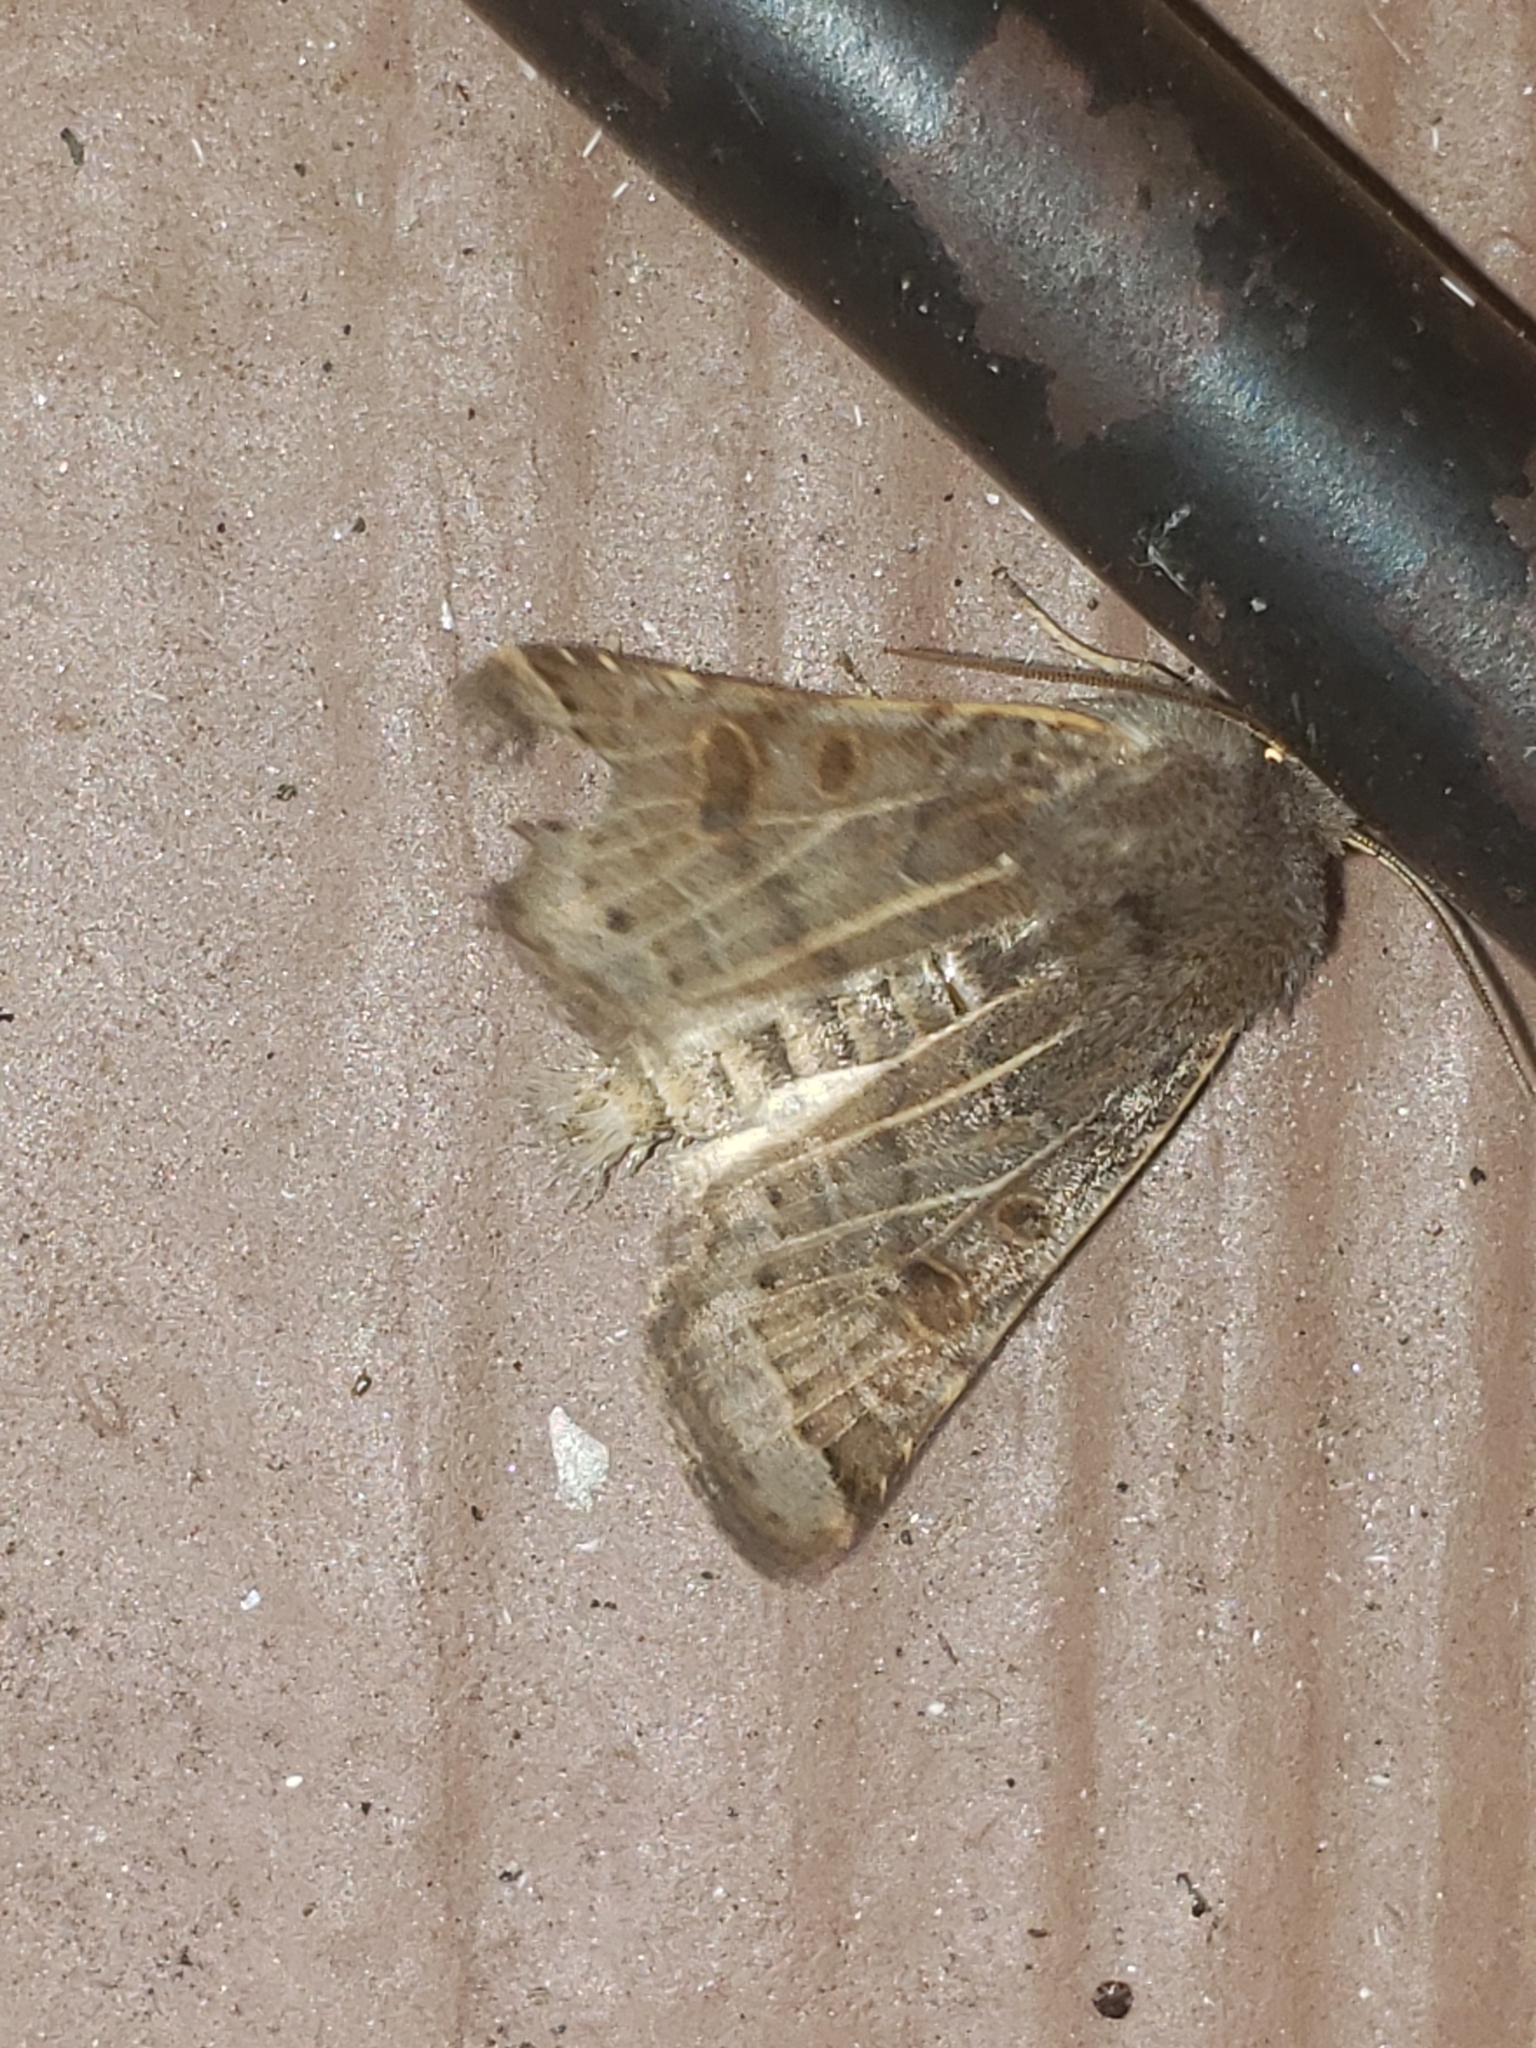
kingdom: Animalia
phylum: Arthropoda
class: Insecta
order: Lepidoptera
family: Noctuidae
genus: Agrochola
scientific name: Agrochola lunosa
